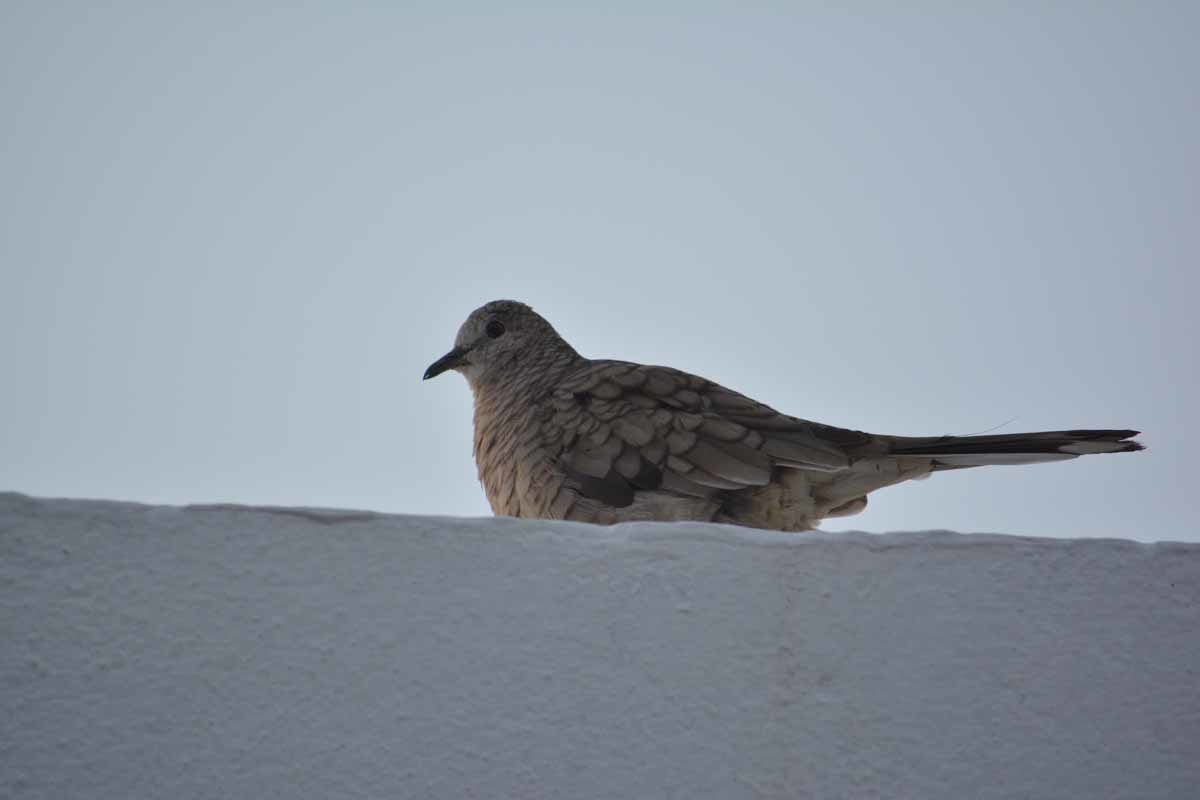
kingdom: Animalia
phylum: Chordata
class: Aves
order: Columbiformes
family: Columbidae
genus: Columbina
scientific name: Columbina inca
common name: Inca dove
